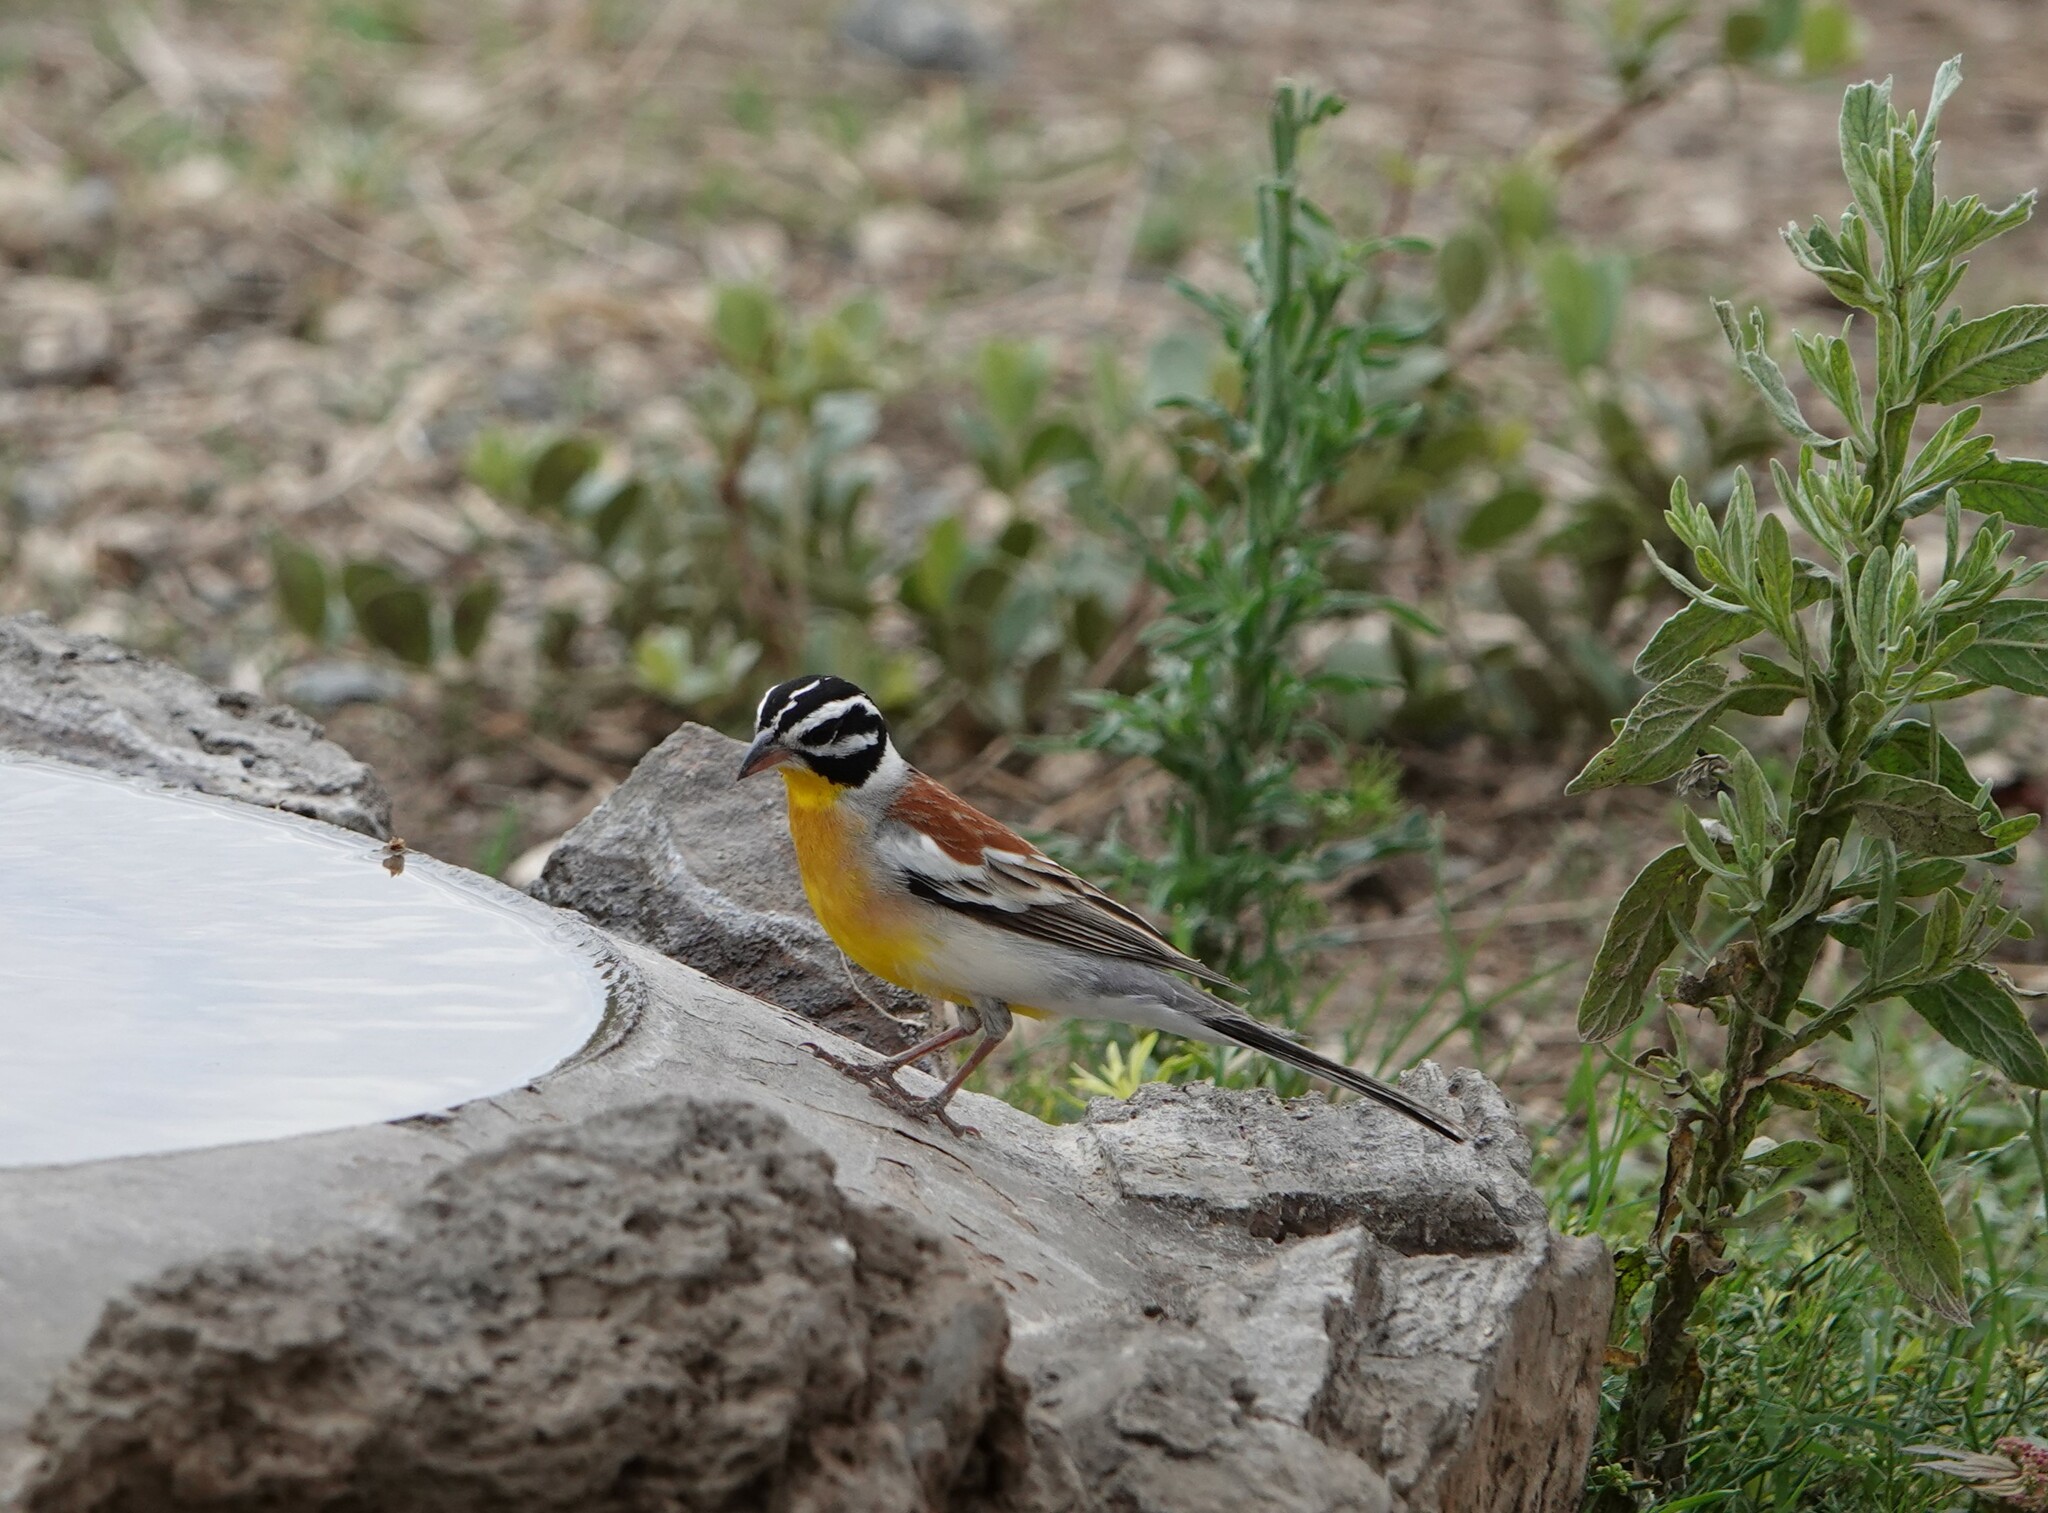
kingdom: Animalia
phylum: Chordata
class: Aves
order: Passeriformes
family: Emberizidae
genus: Emberiza
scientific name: Emberiza flaviventris
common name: Golden-breasted bunting
